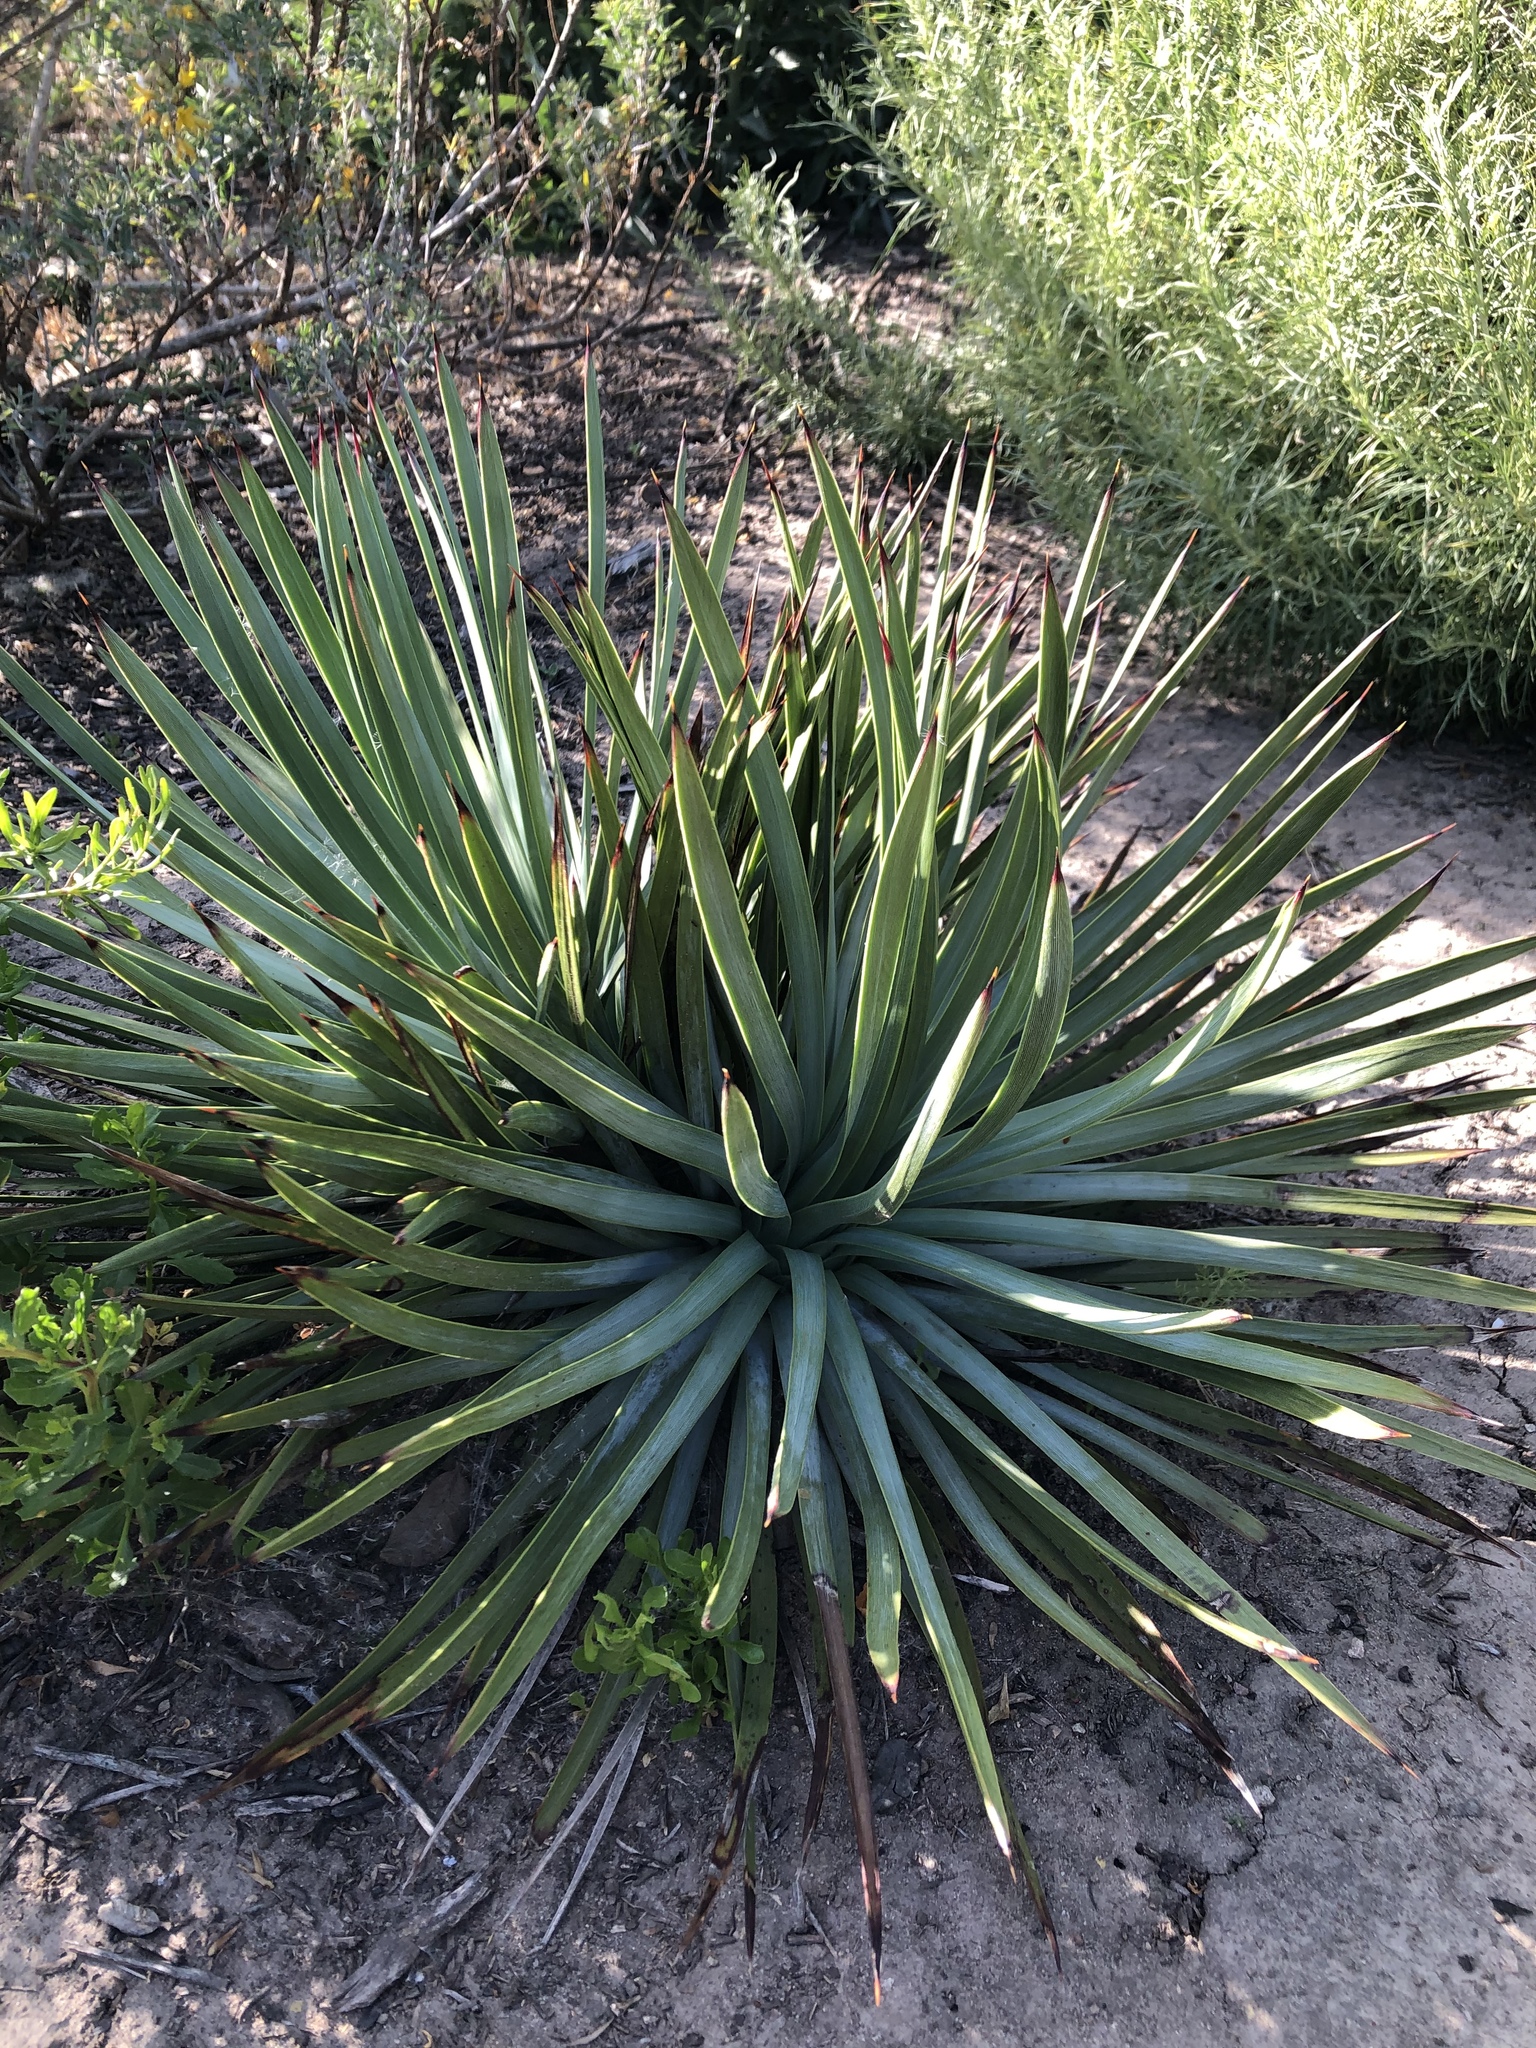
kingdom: Plantae
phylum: Tracheophyta
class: Liliopsida
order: Asparagales
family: Asparagaceae
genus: Hesperoyucca
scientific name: Hesperoyucca whipplei
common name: Our lord's-candle
